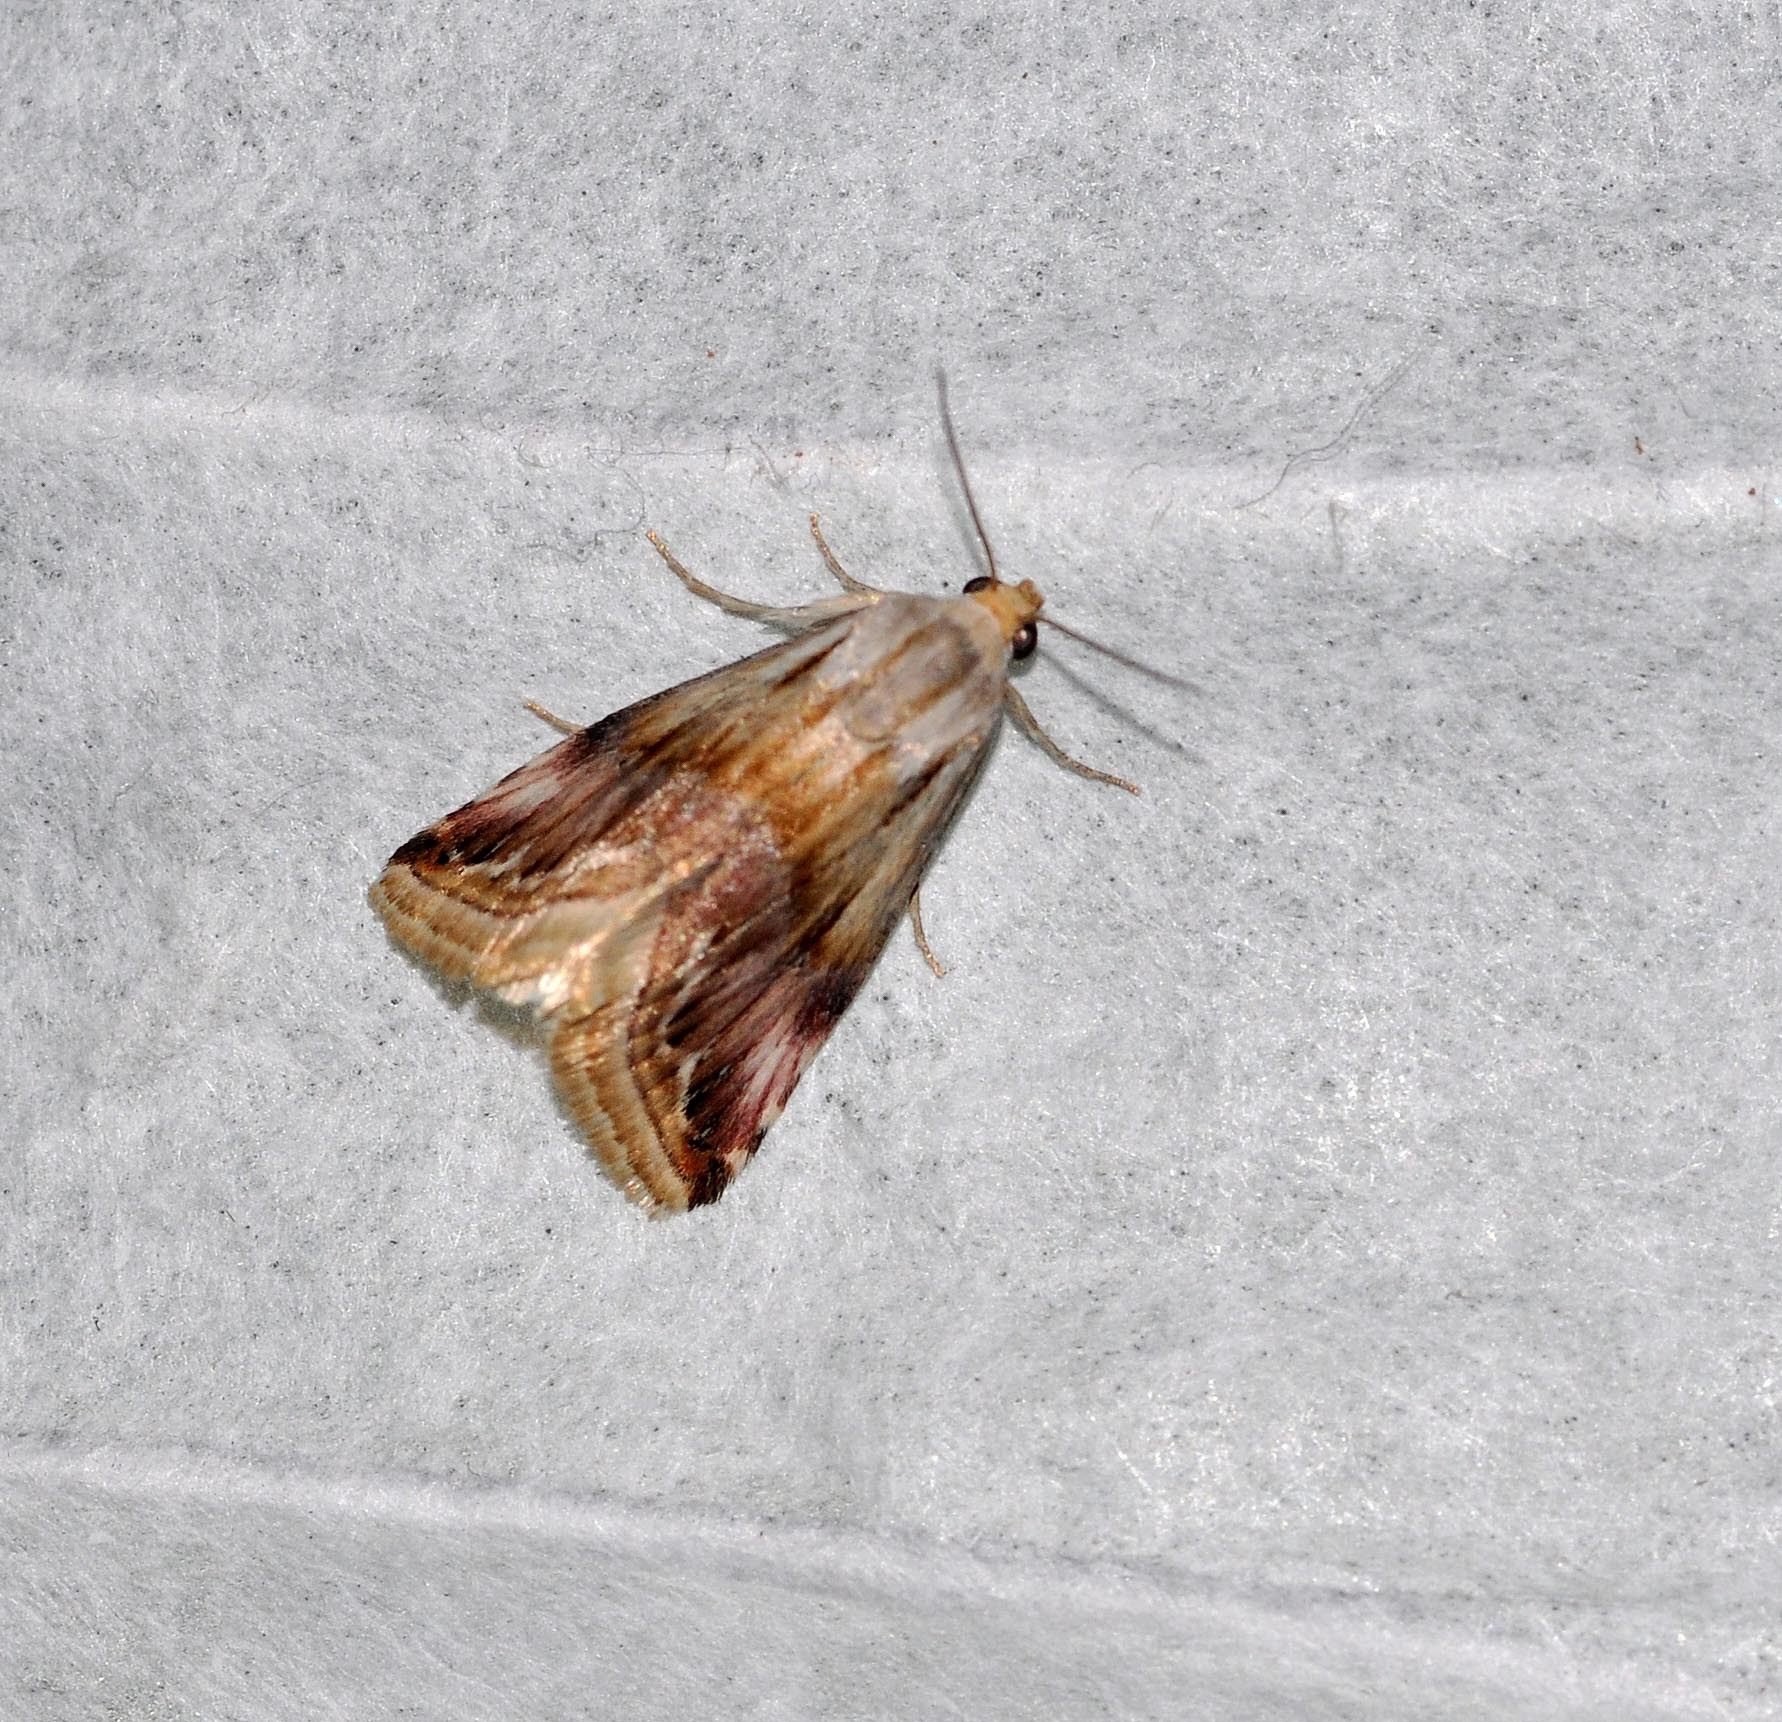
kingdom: Animalia
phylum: Arthropoda
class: Insecta
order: Lepidoptera
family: Noctuidae
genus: Eublemma
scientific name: Eublemma ostrina
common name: Purple marbled
